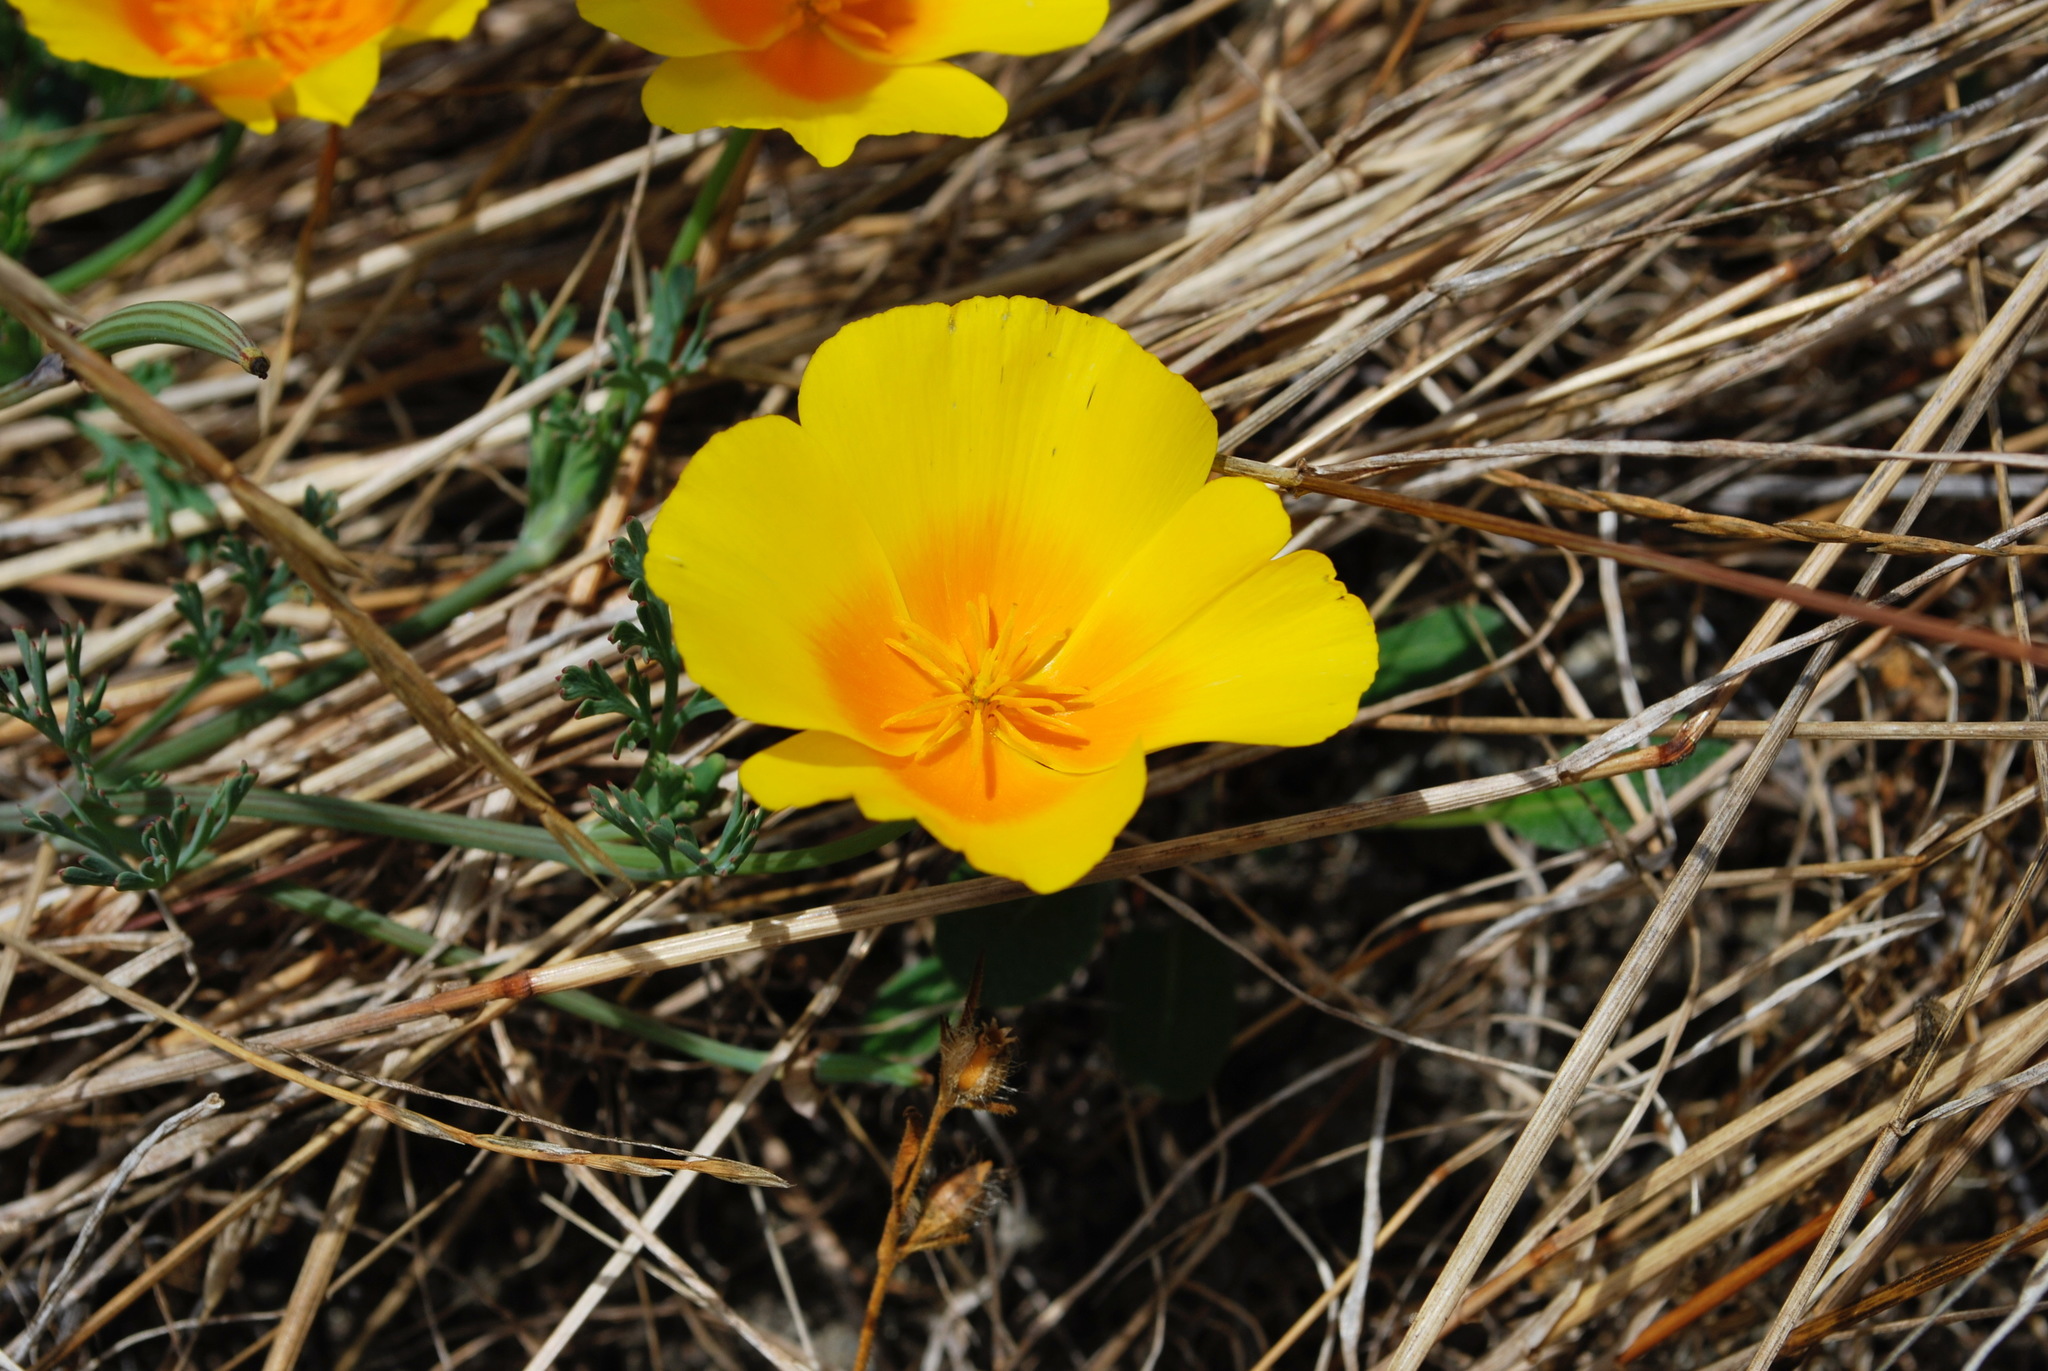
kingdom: Plantae
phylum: Tracheophyta
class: Magnoliopsida
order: Ranunculales
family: Papaveraceae
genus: Eschscholzia
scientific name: Eschscholzia californica
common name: California poppy
